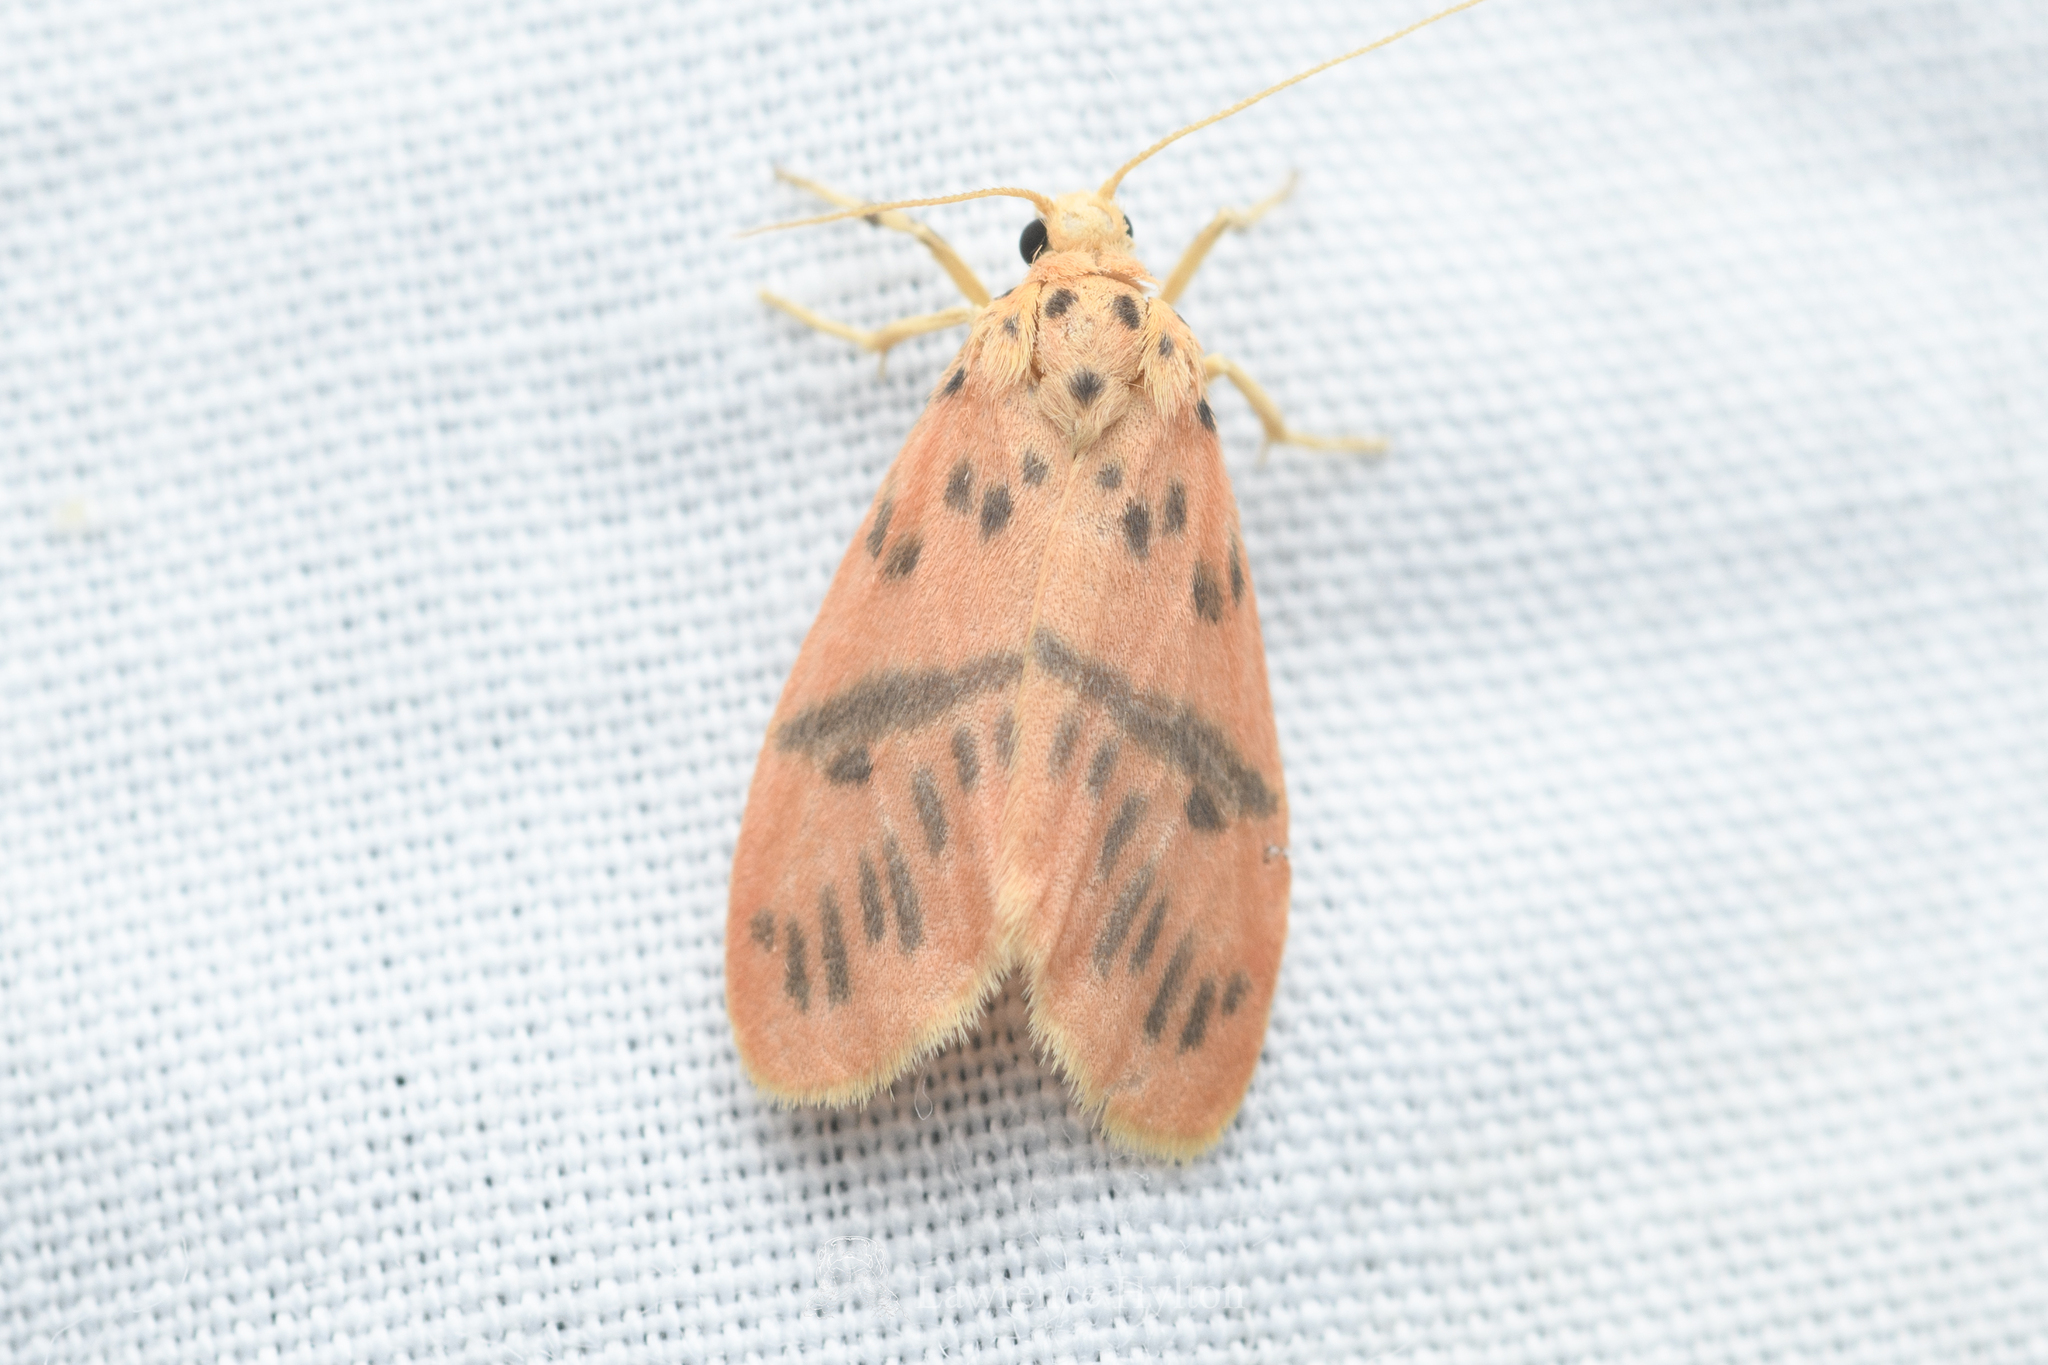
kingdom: Animalia
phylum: Arthropoda
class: Insecta
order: Lepidoptera
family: Erebidae
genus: Arctelene
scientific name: Arctelene arcuata
